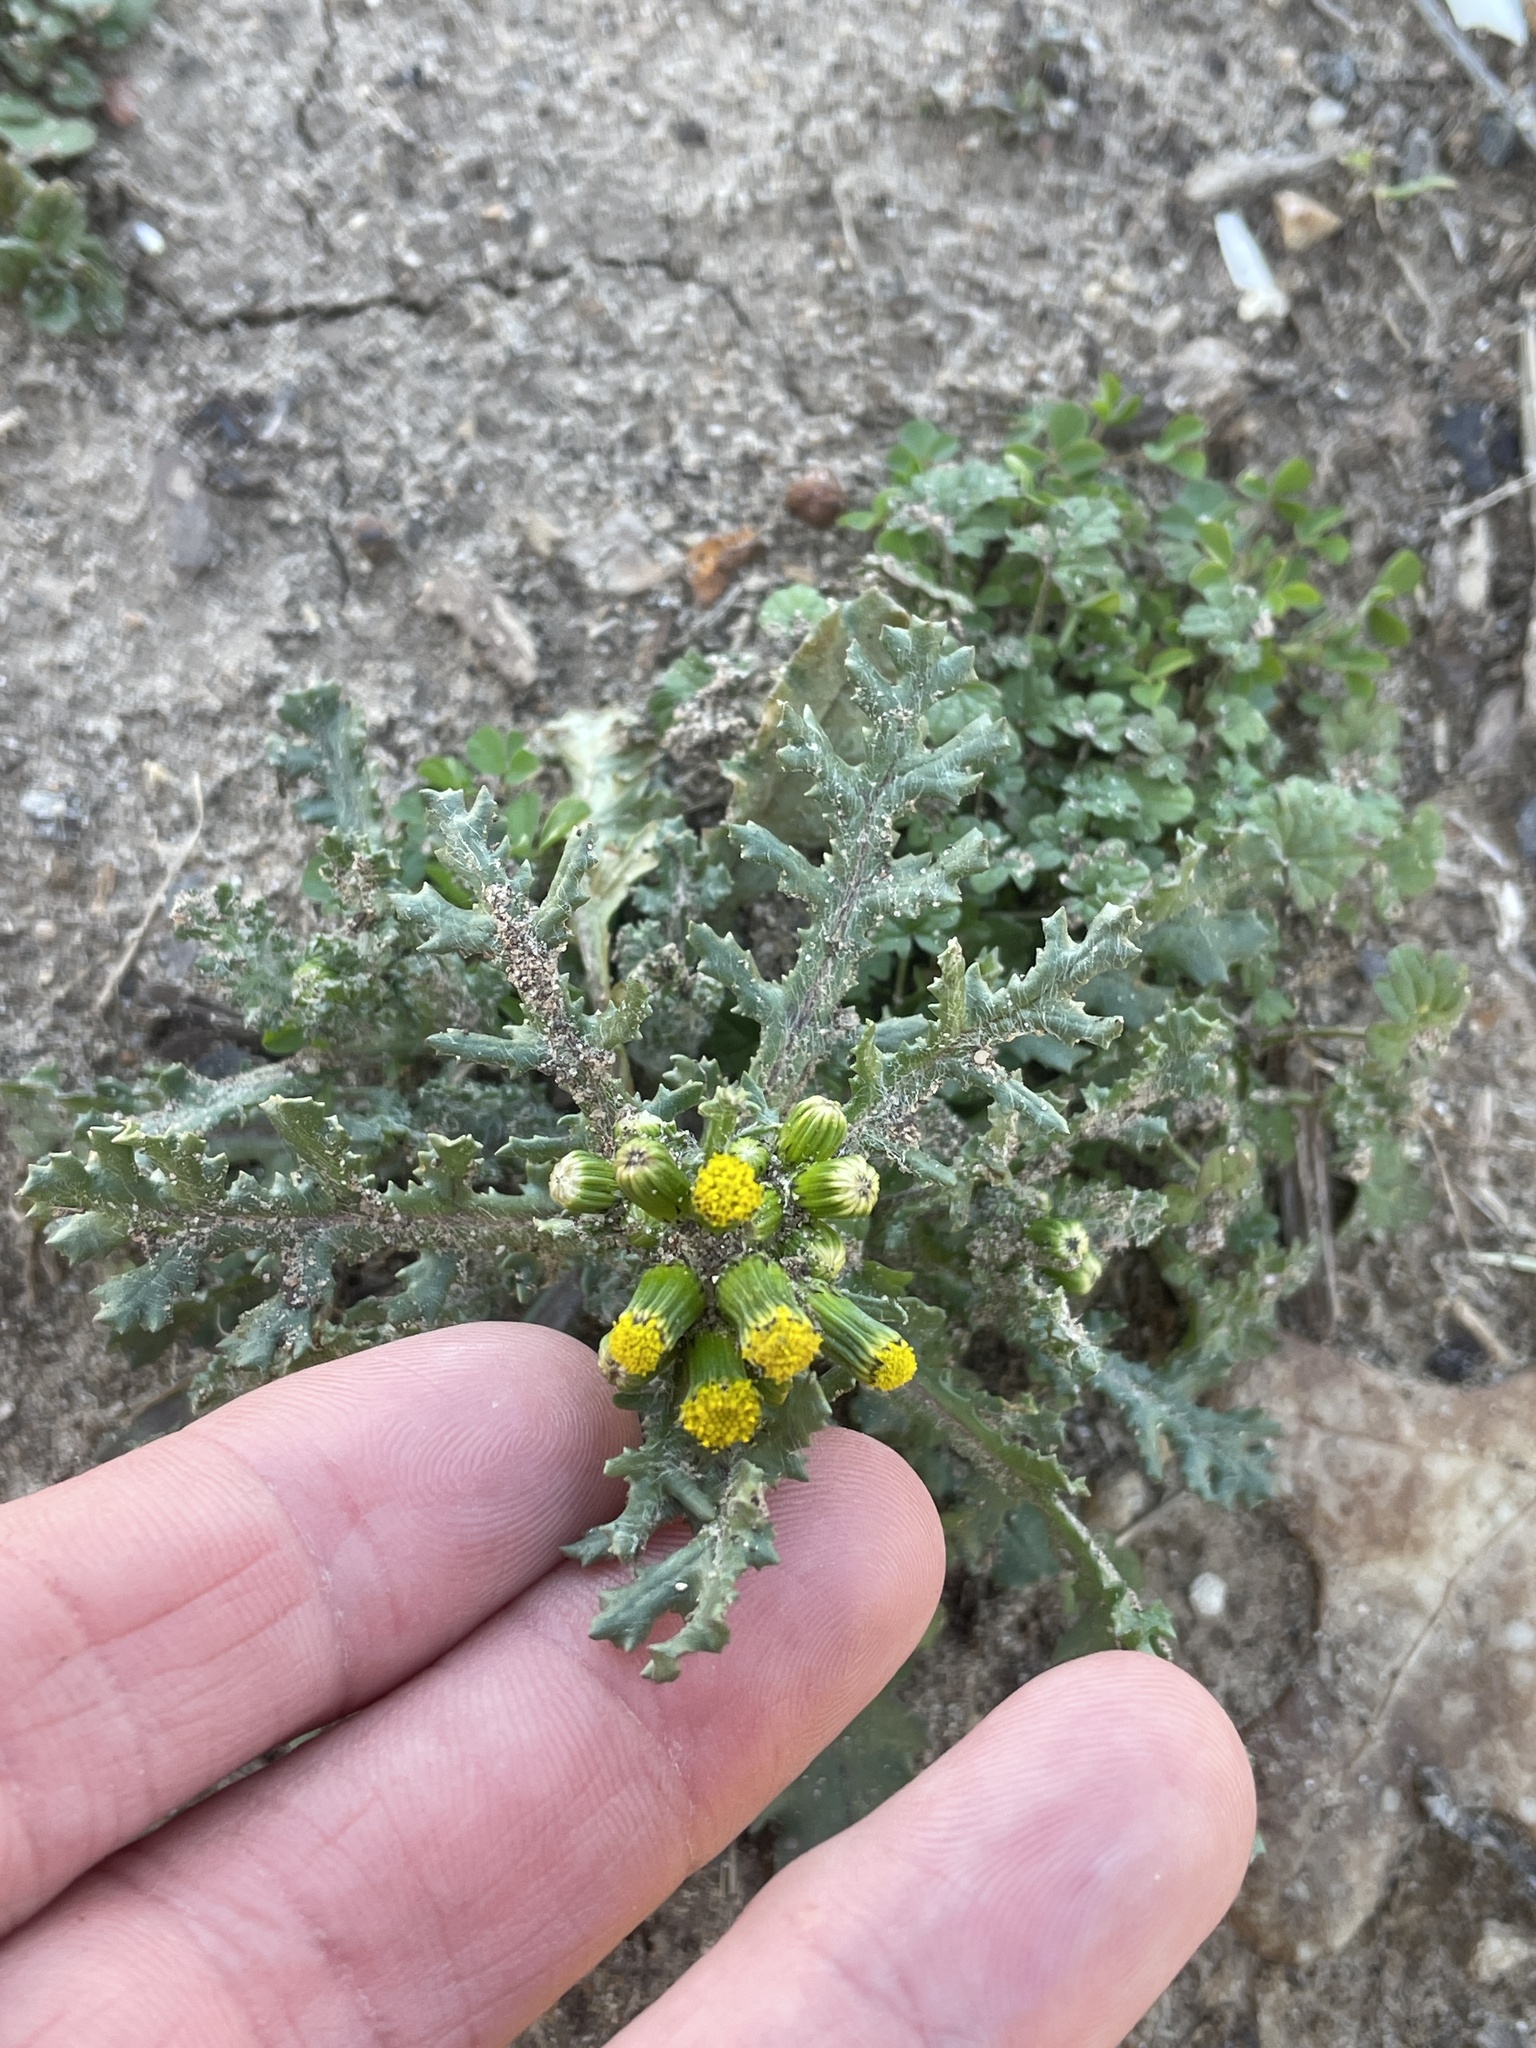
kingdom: Plantae
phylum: Tracheophyta
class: Magnoliopsida
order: Asterales
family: Asteraceae
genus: Senecio
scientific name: Senecio vulgaris
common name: Old-man-in-the-spring
